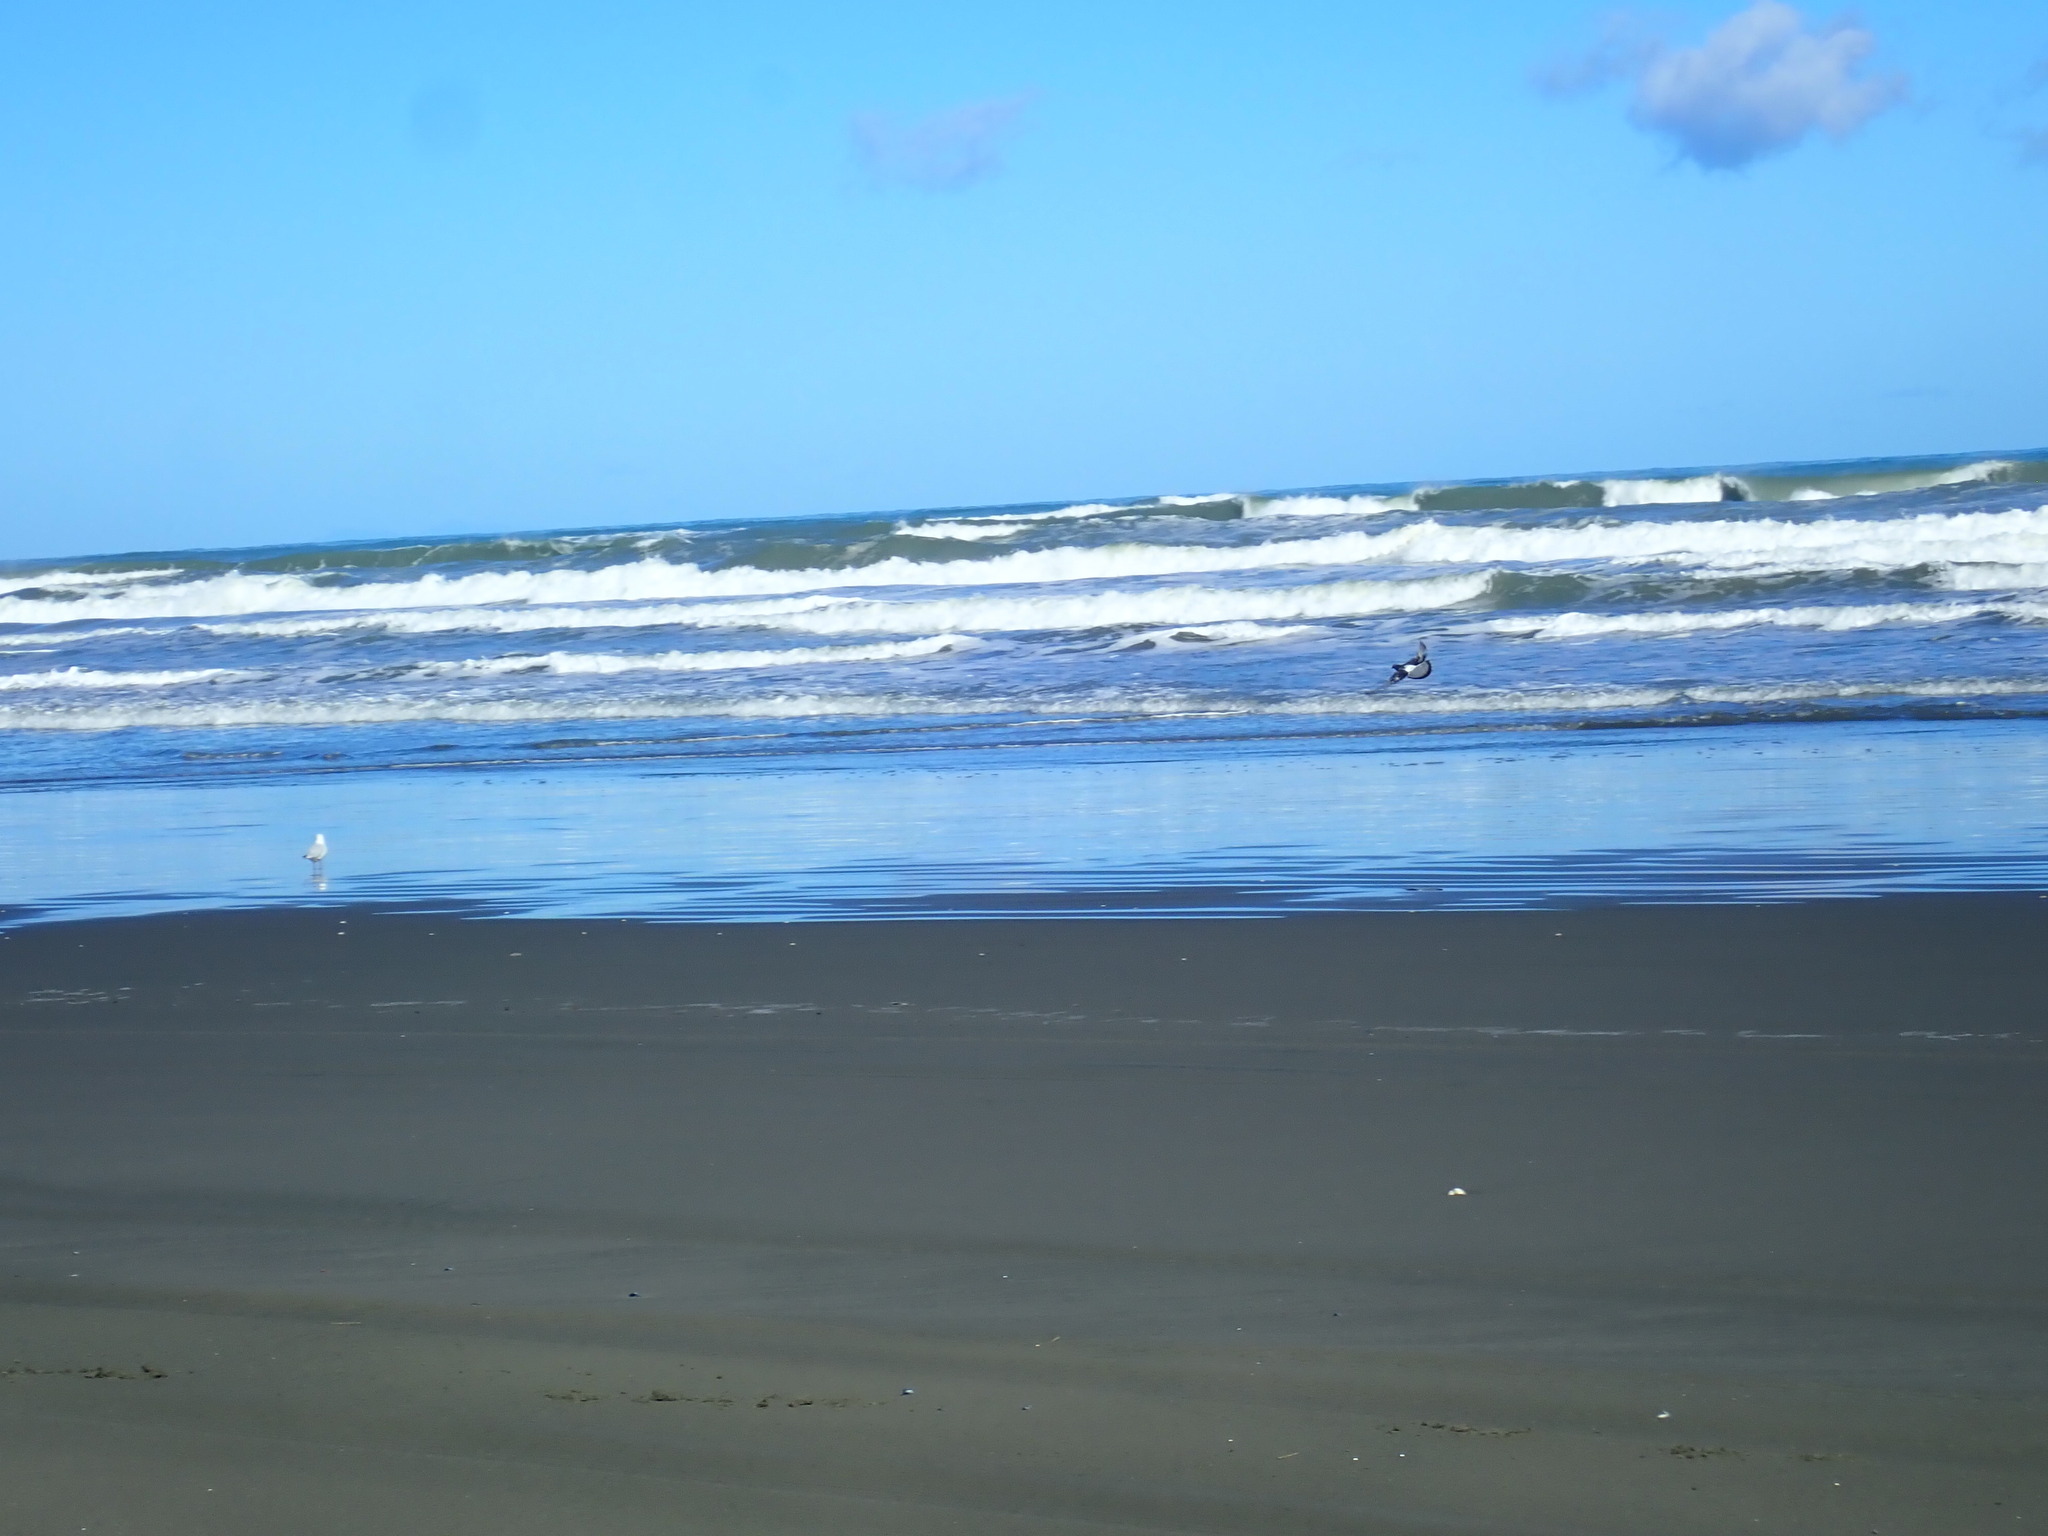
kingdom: Animalia
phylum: Chordata
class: Aves
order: Columbiformes
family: Columbidae
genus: Columba
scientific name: Columba livia
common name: Rock pigeon
